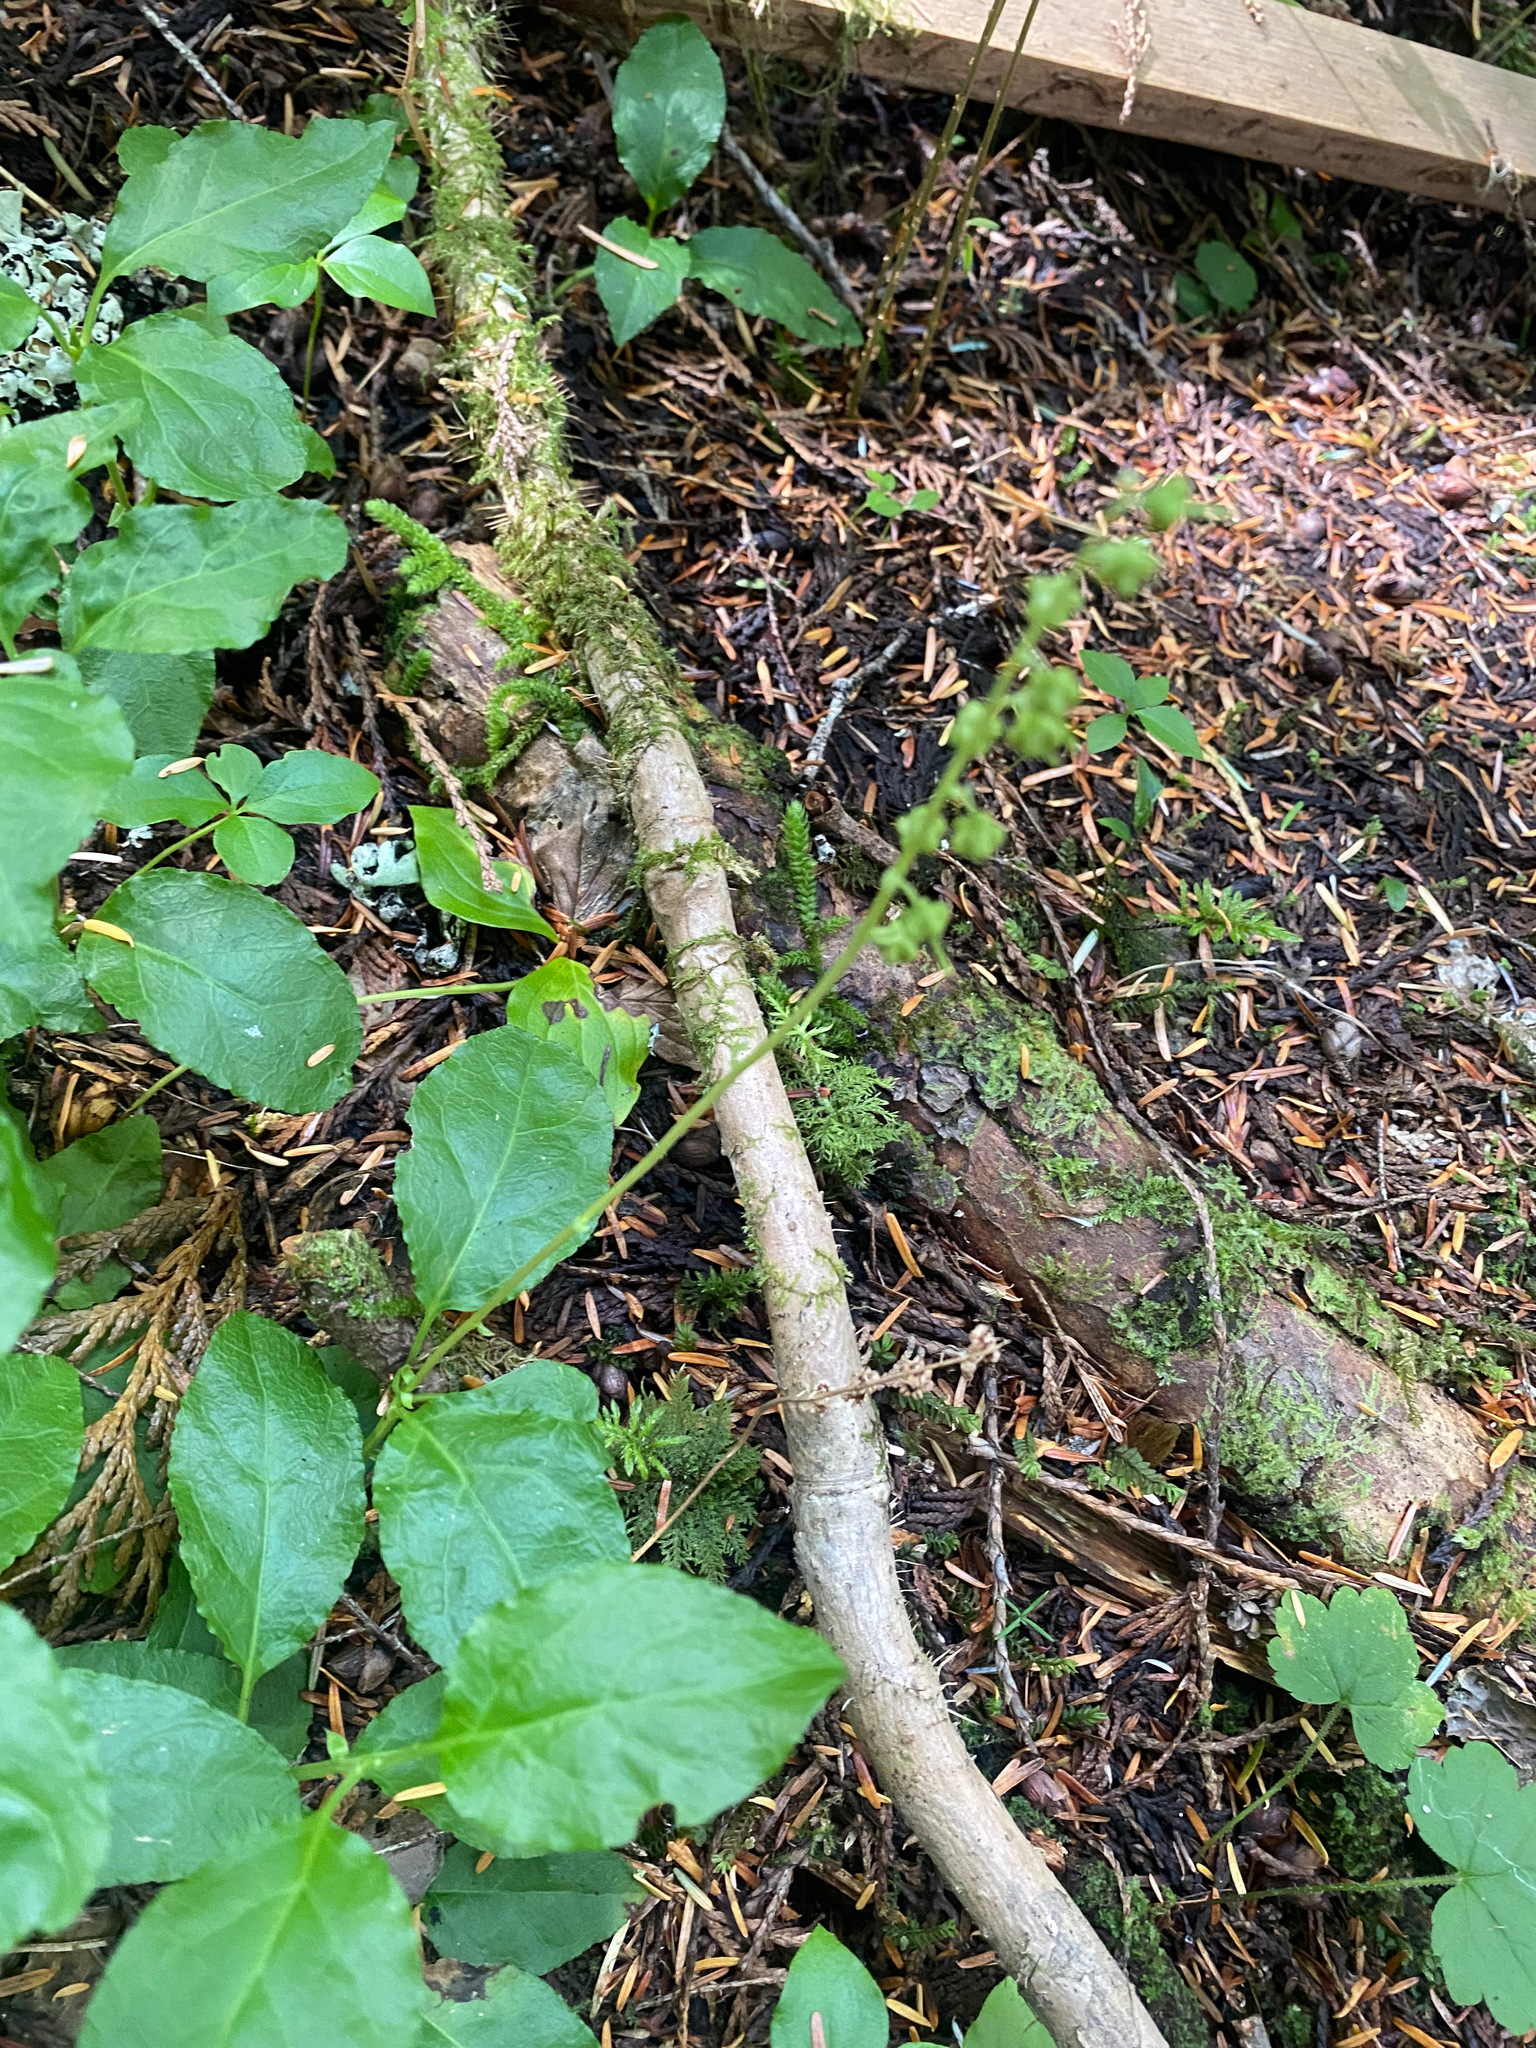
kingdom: Plantae
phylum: Tracheophyta
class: Magnoliopsida
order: Ericales
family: Ericaceae
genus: Orthilia
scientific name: Orthilia secunda
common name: One-sided orthilia
